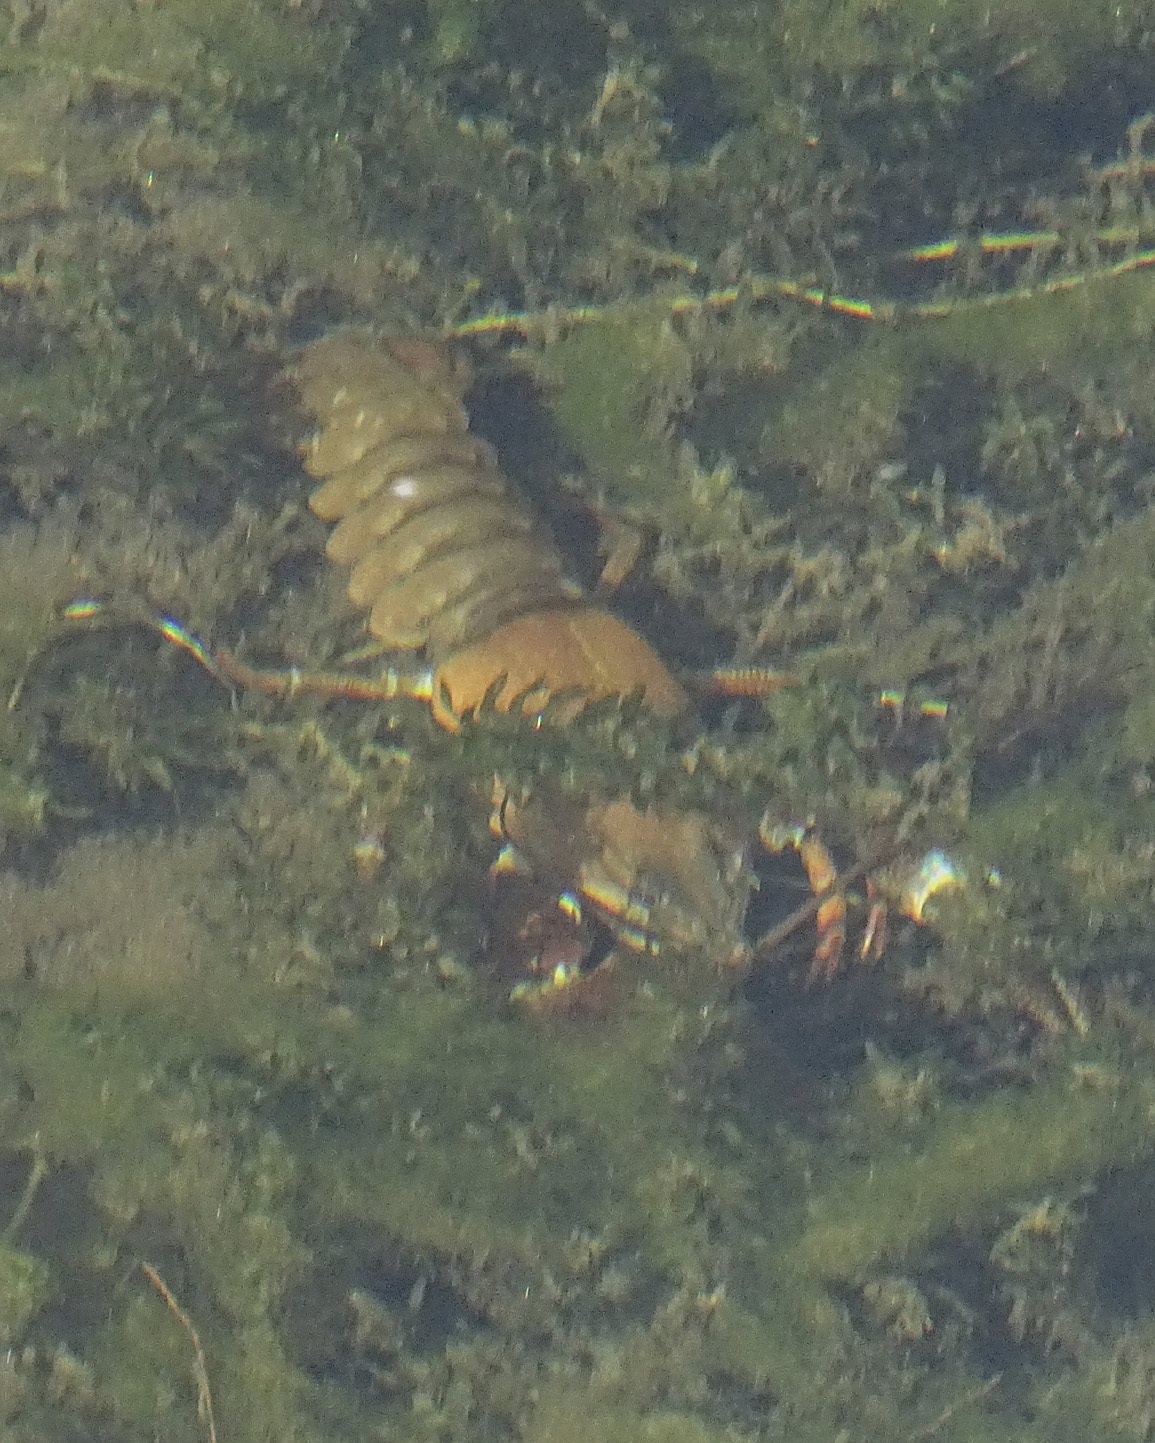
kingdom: Animalia
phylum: Arthropoda
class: Malacostraca
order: Decapoda
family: Astacidae
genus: Pacifastacus
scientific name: Pacifastacus leniusculus
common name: Signal crayfish
